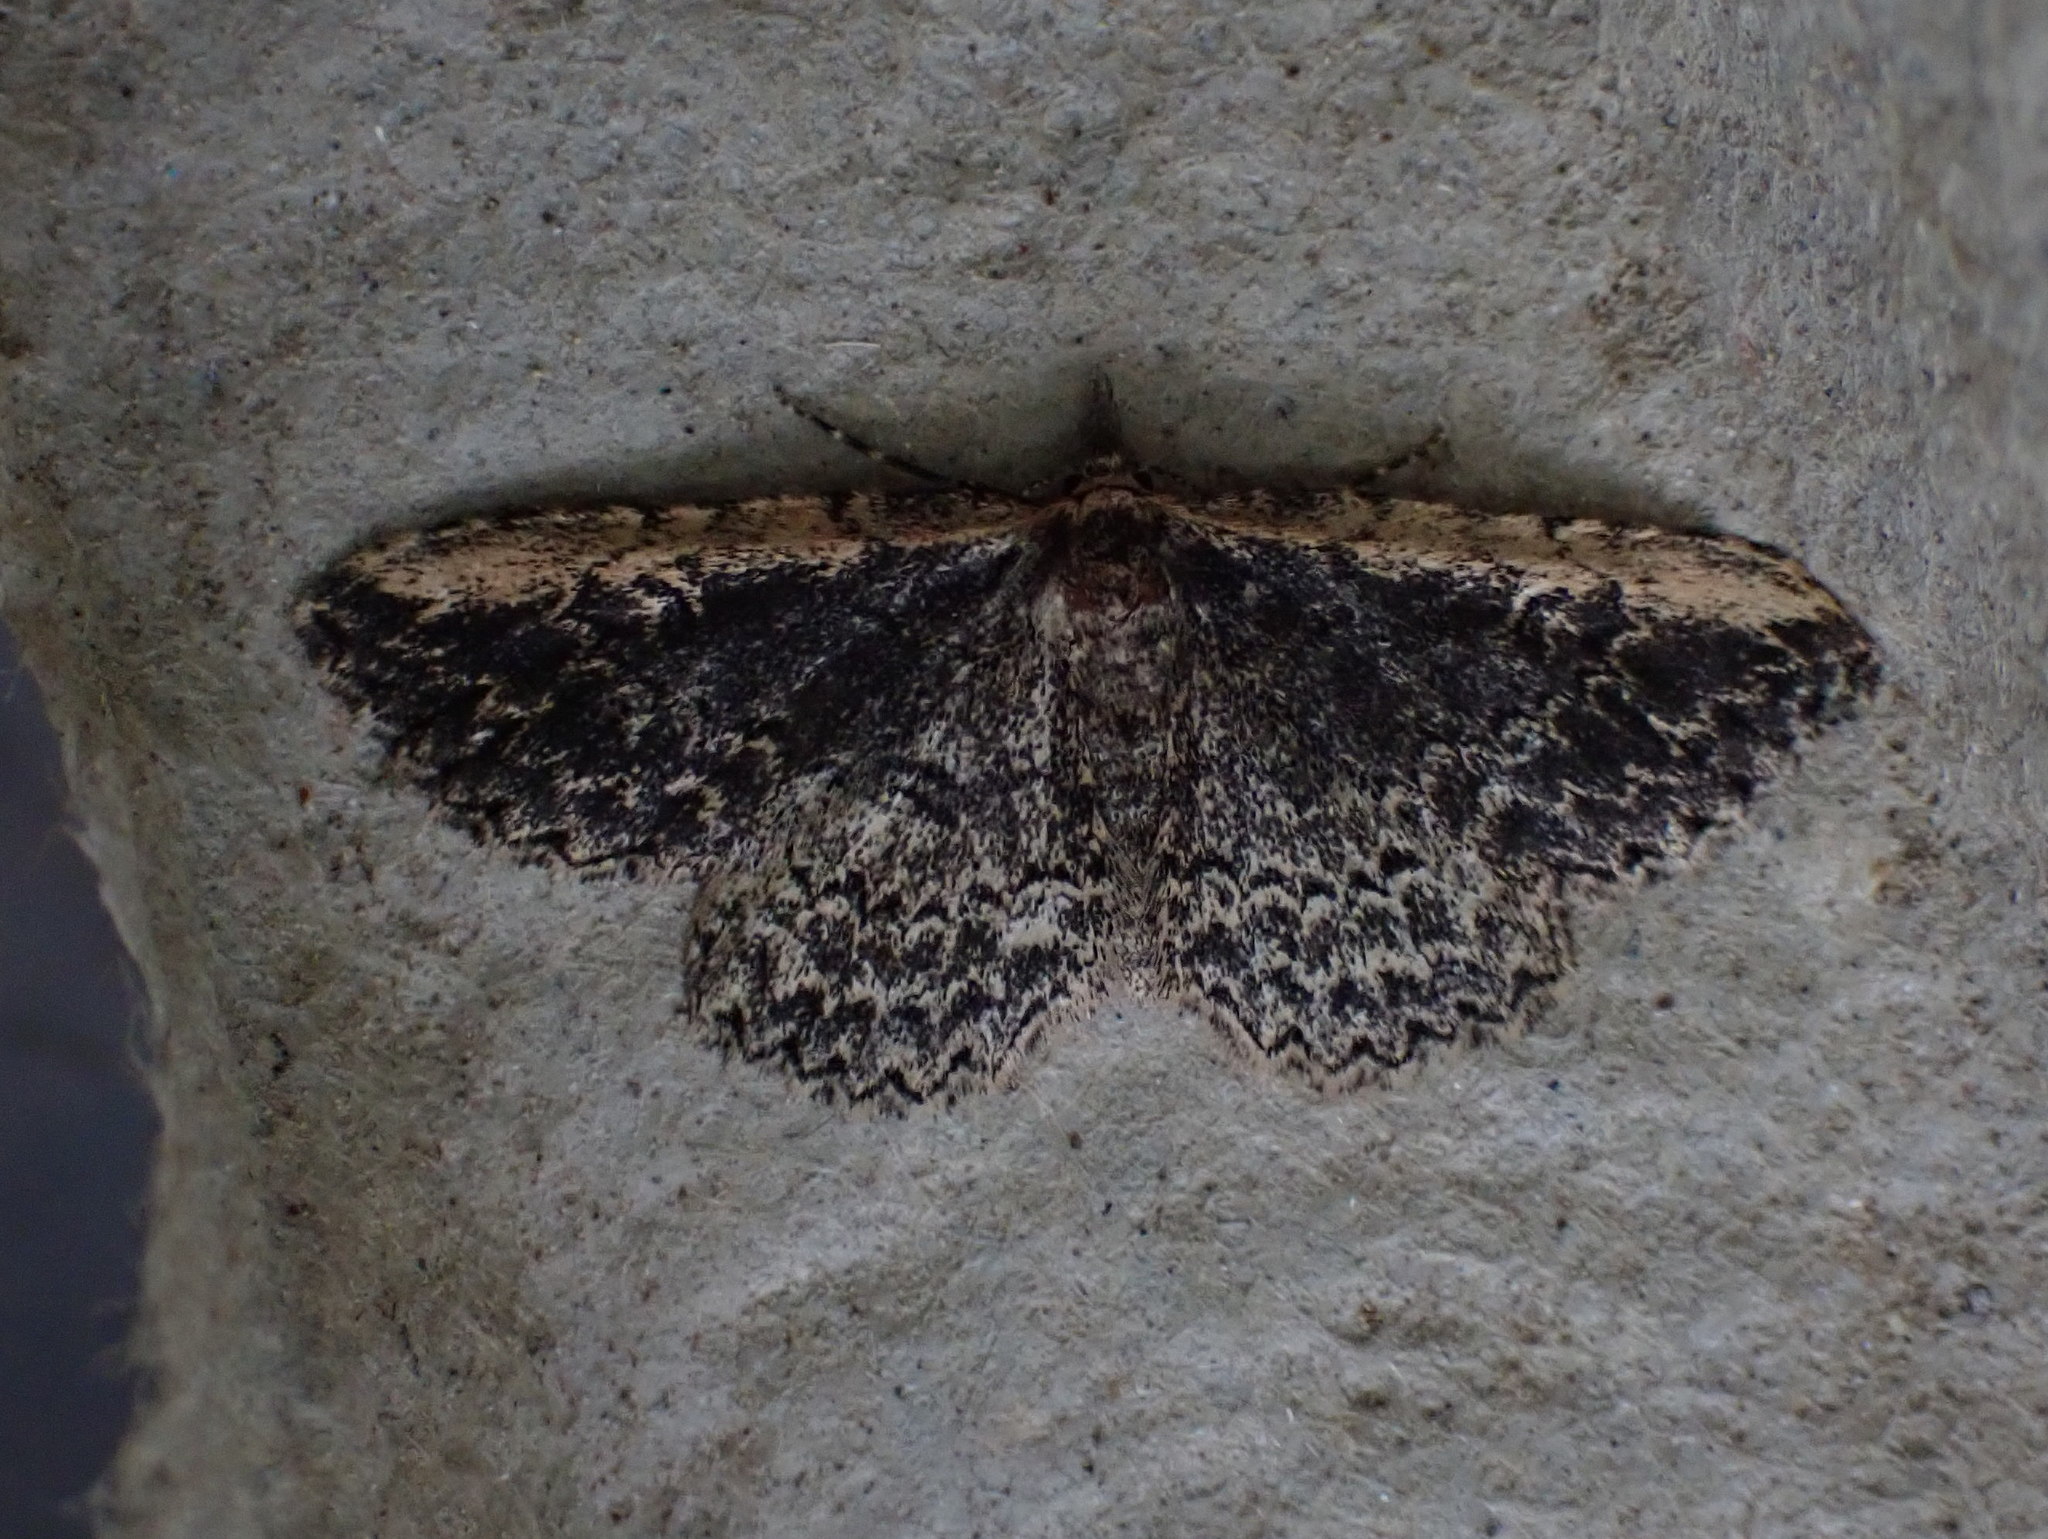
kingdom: Animalia
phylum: Arthropoda
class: Insecta
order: Lepidoptera
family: Erebidae
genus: Mycterophora
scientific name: Mycterophora inexplicata
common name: Pale-edged snout moth
